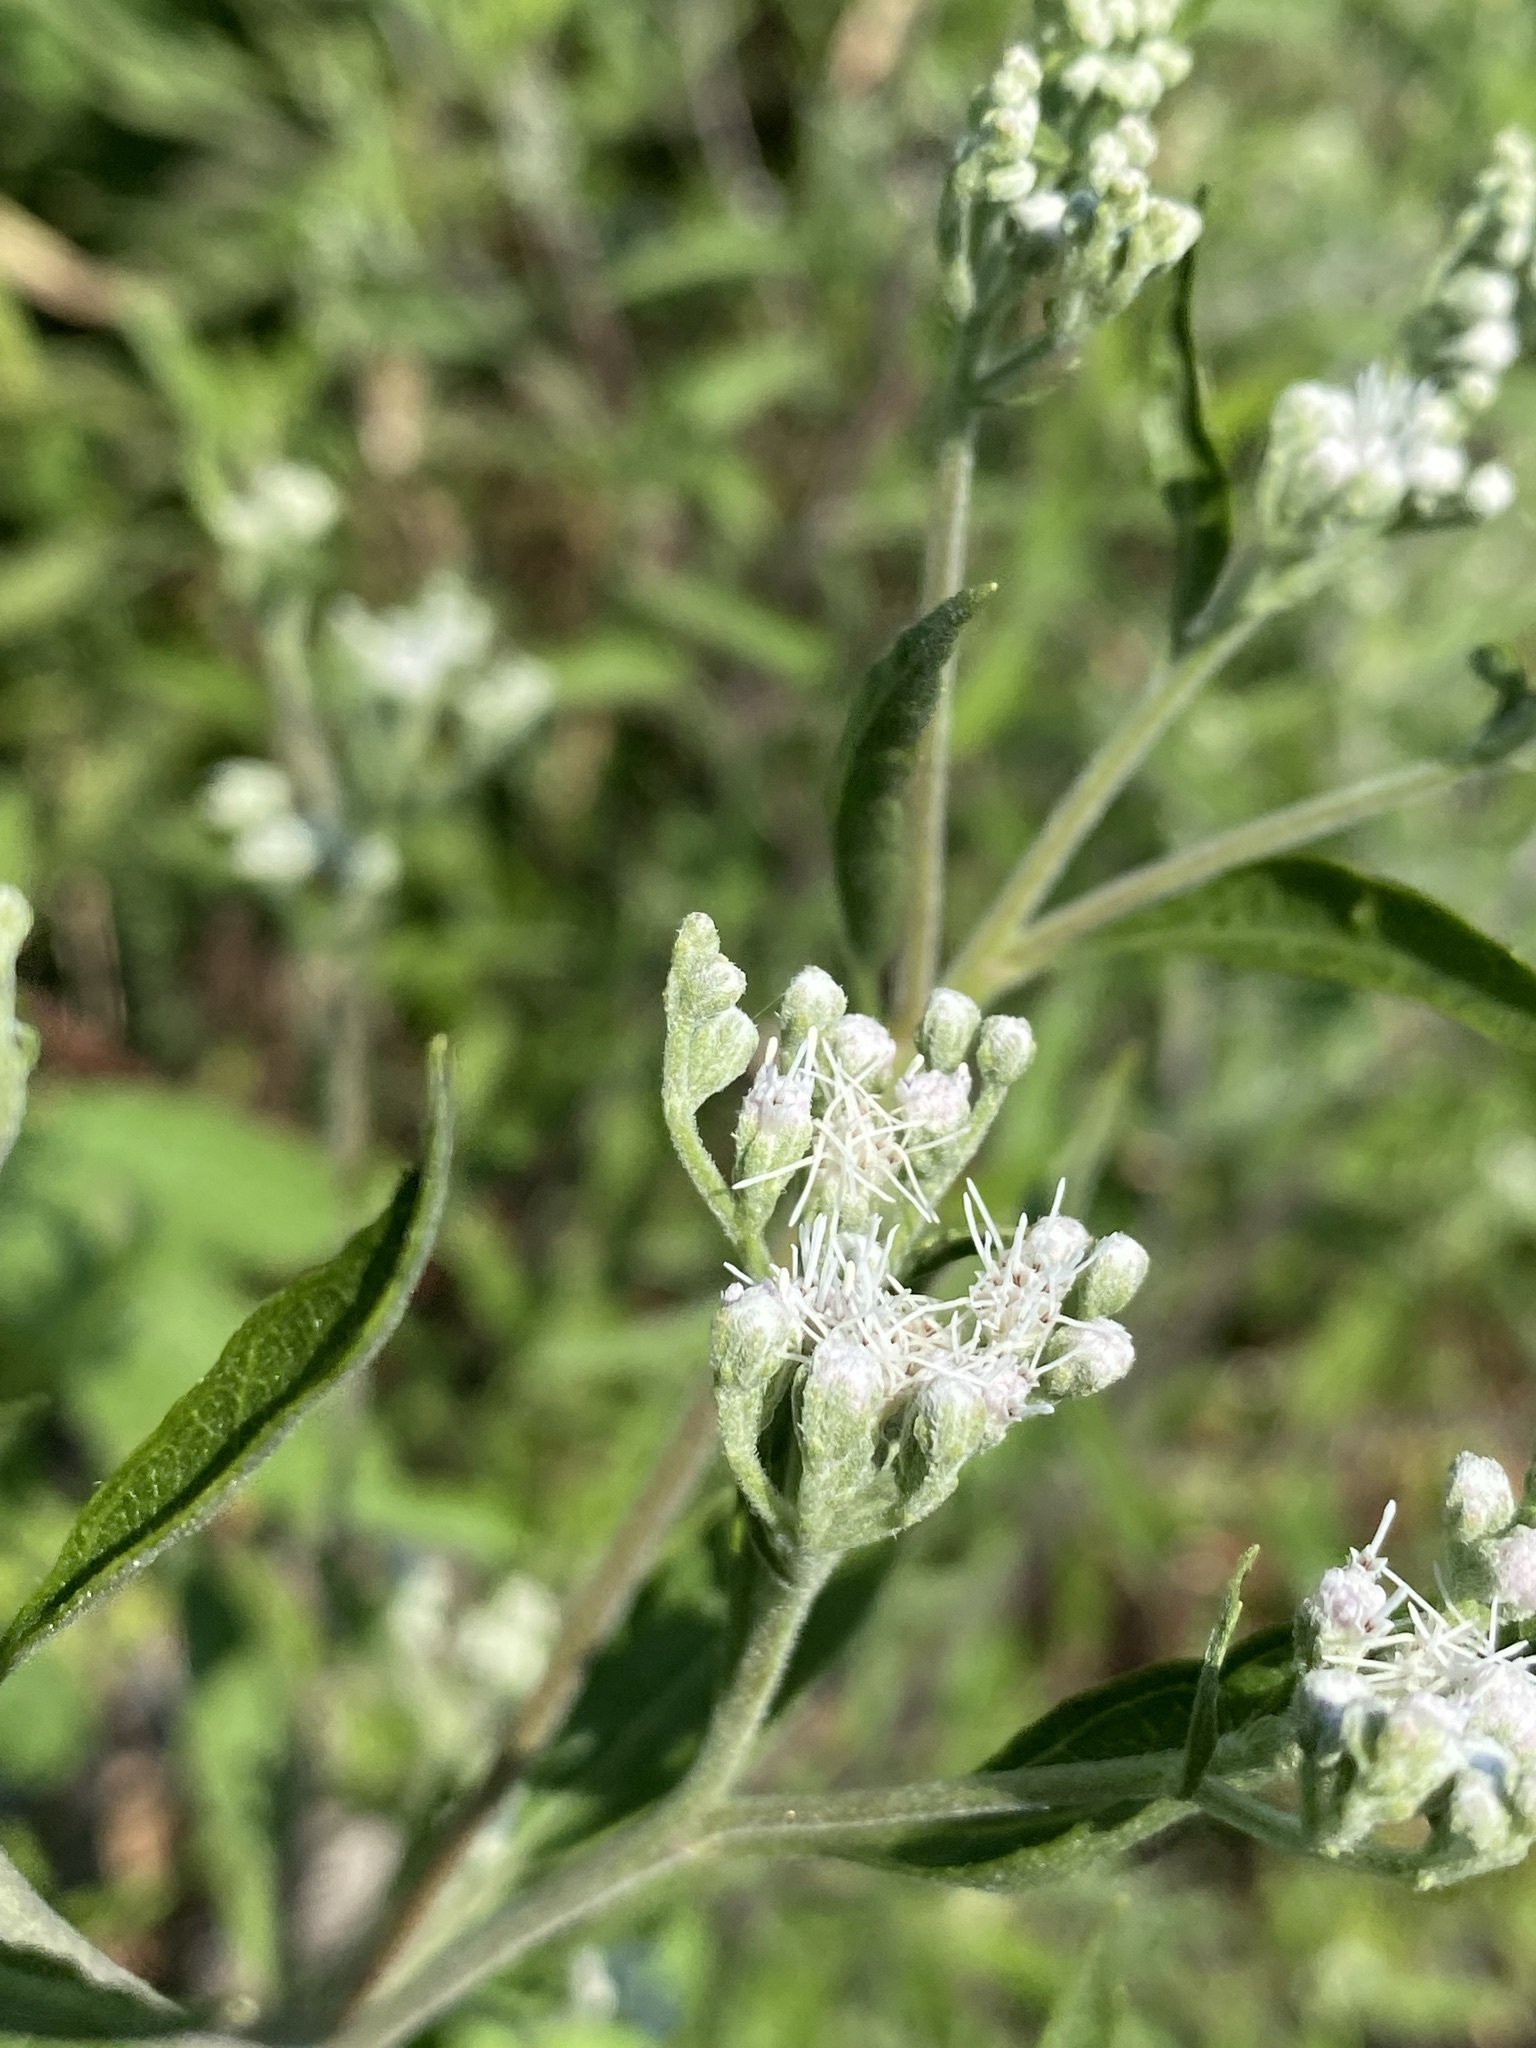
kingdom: Plantae
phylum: Tracheophyta
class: Magnoliopsida
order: Asterales
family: Asteraceae
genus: Eupatorium
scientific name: Eupatorium serotinum
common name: Late boneset
